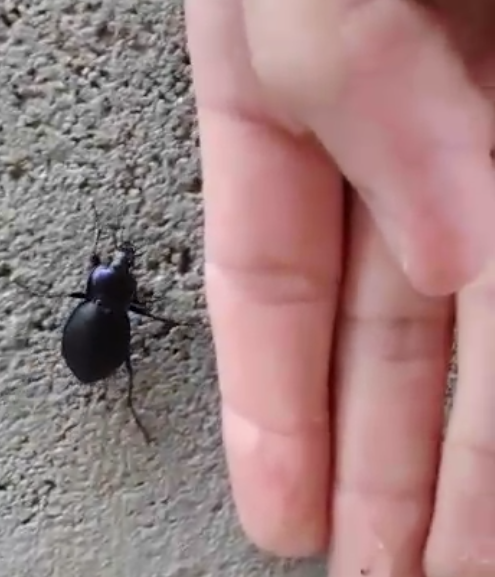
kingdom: Animalia
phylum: Arthropoda
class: Insecta
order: Coleoptera
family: Carabidae
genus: Carabus
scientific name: Carabus luetgensi
